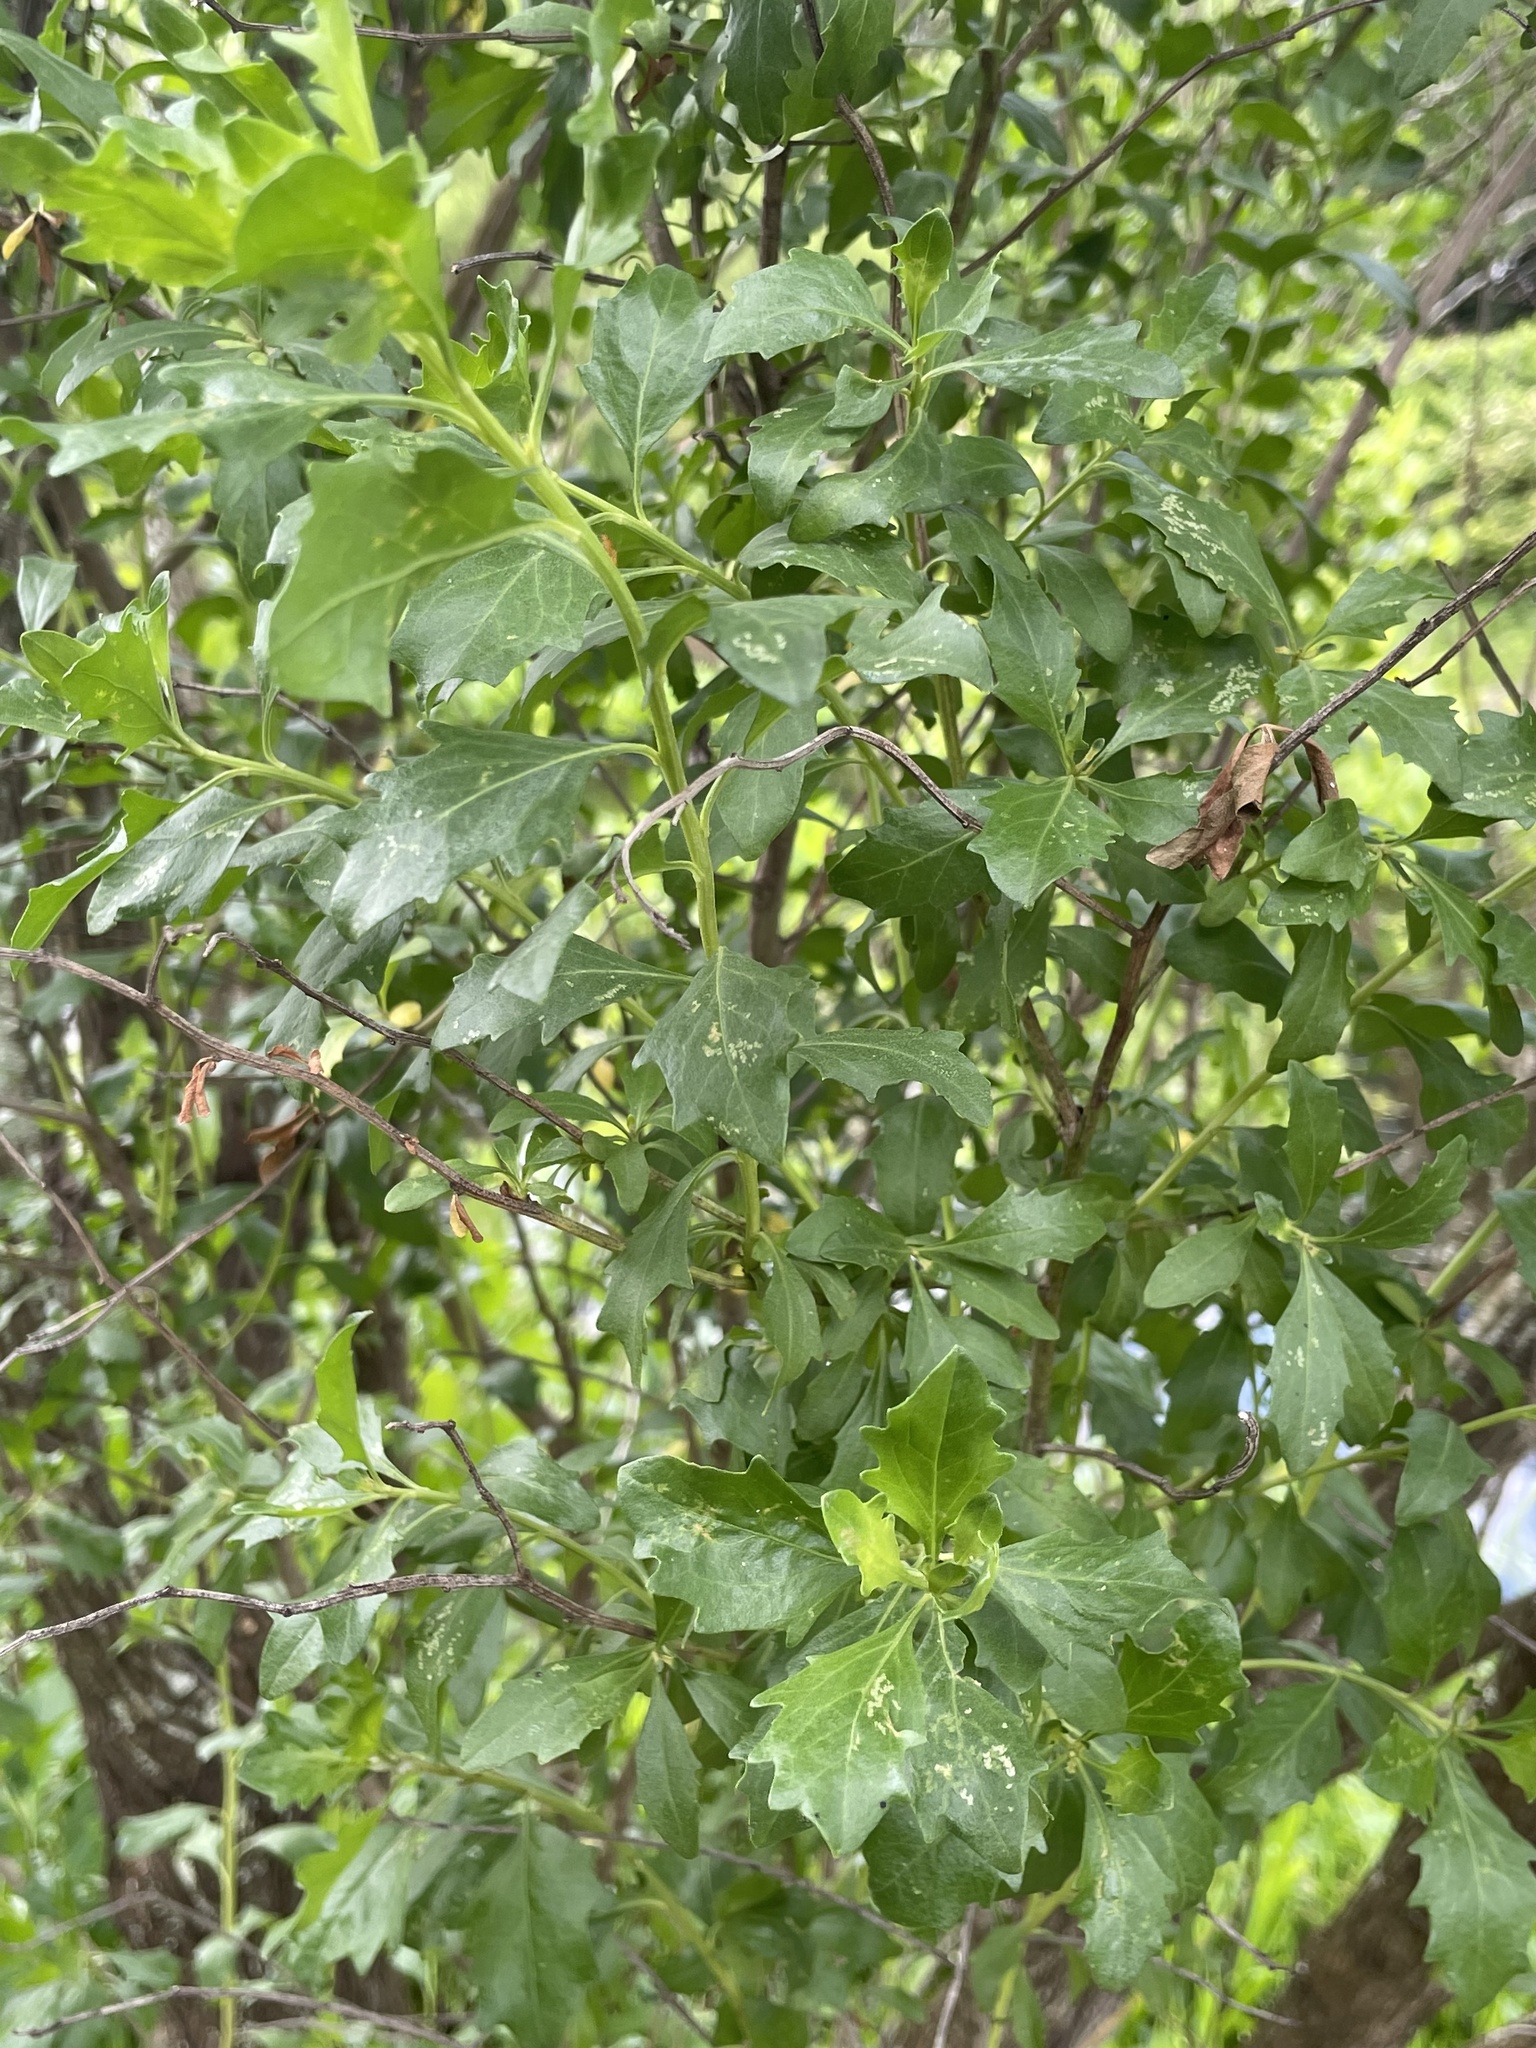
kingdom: Plantae
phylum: Tracheophyta
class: Magnoliopsida
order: Asterales
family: Asteraceae
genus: Baccharis
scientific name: Baccharis halimifolia
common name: Eastern baccharis
